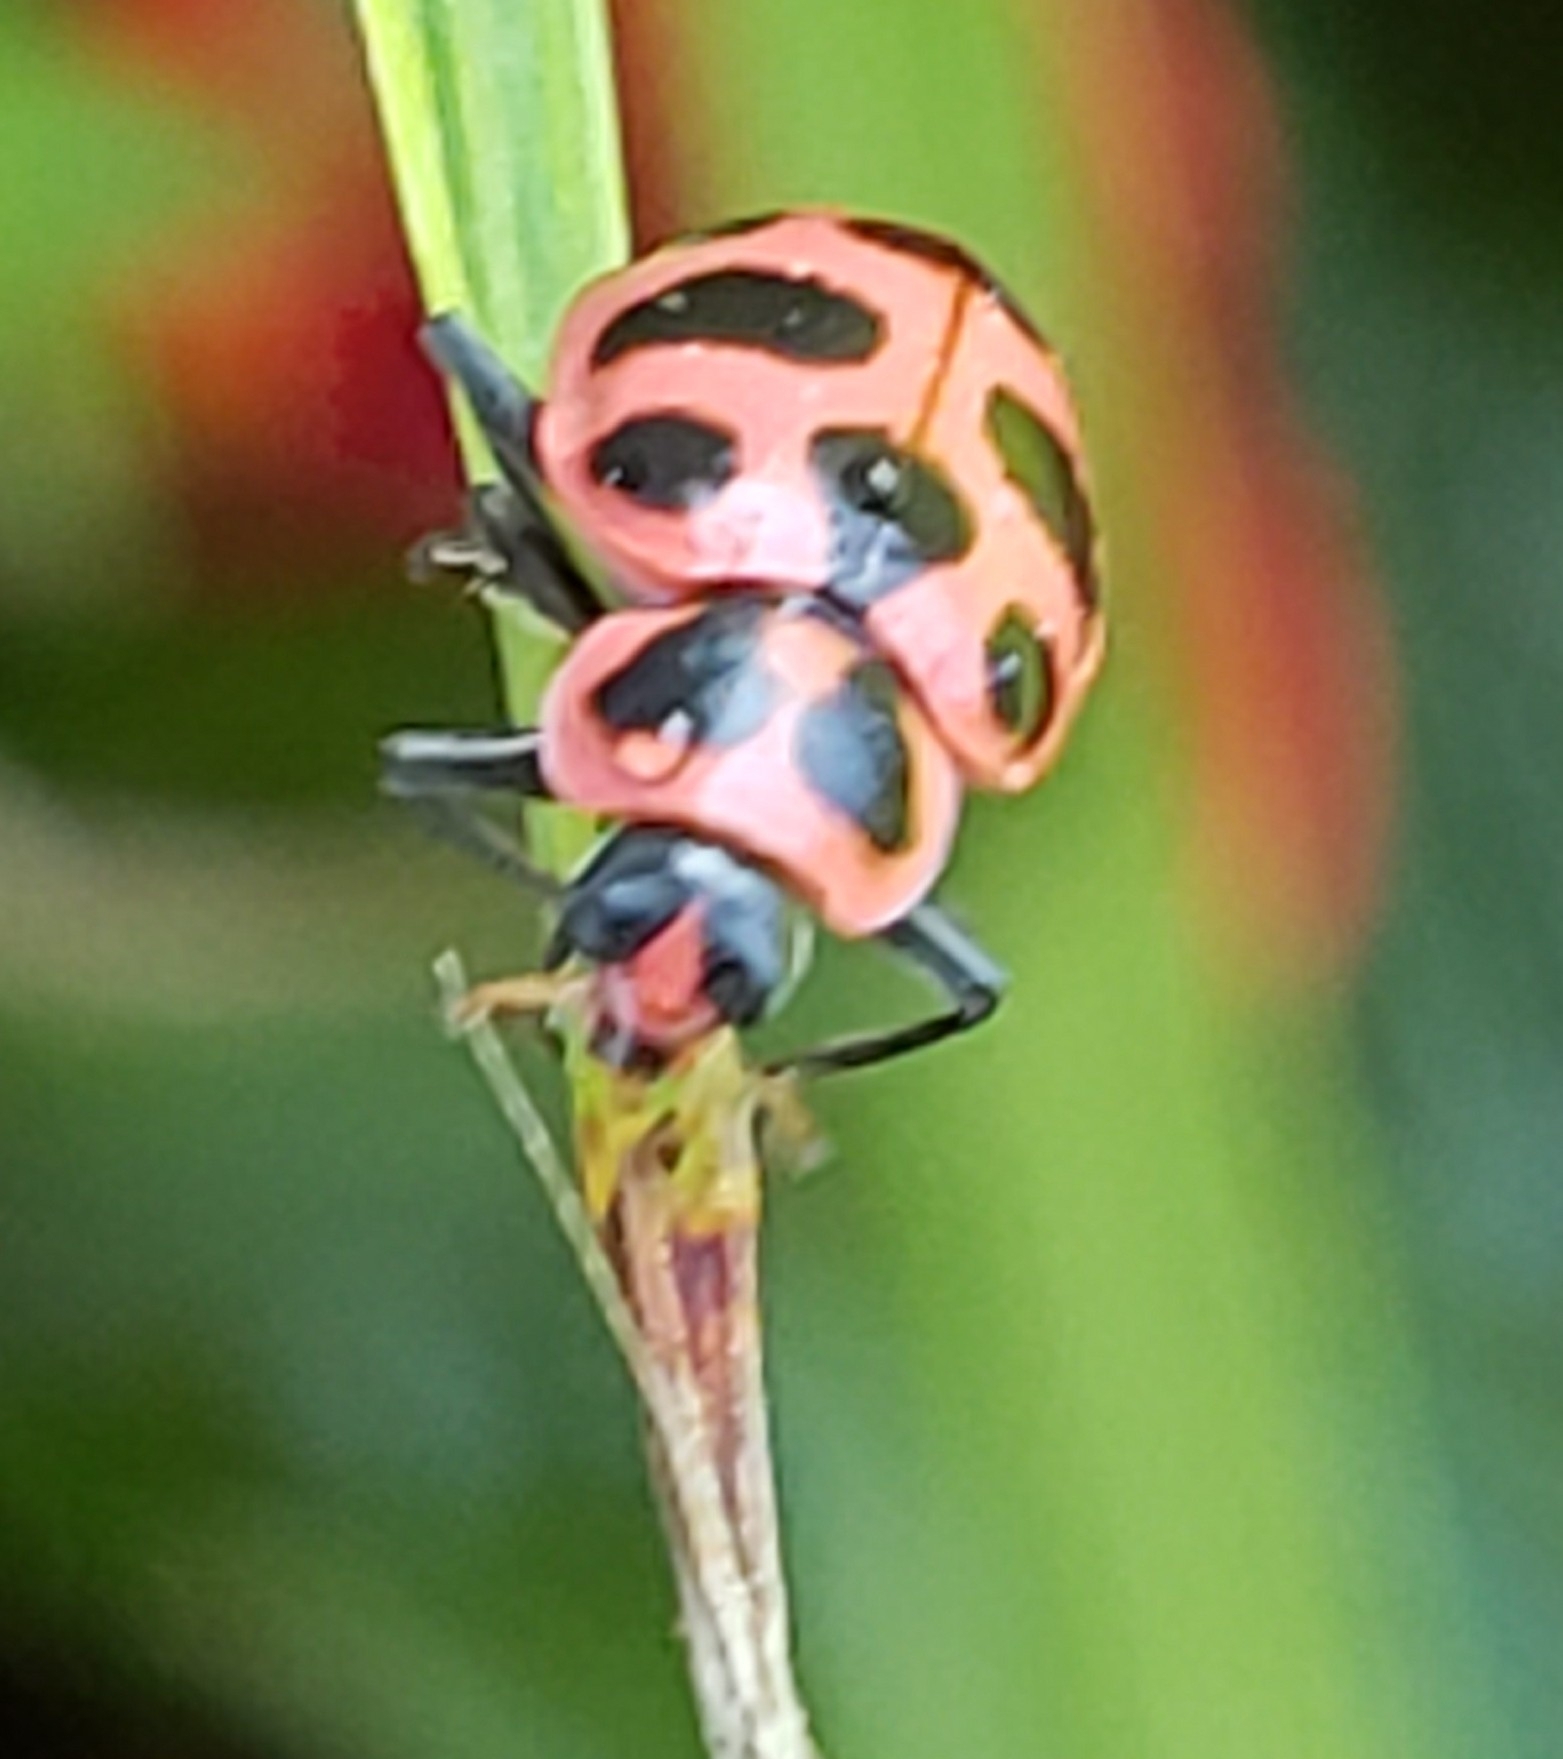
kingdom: Animalia
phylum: Arthropoda
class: Insecta
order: Coleoptera
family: Coccinellidae
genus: Coleomegilla
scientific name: Coleomegilla maculata
